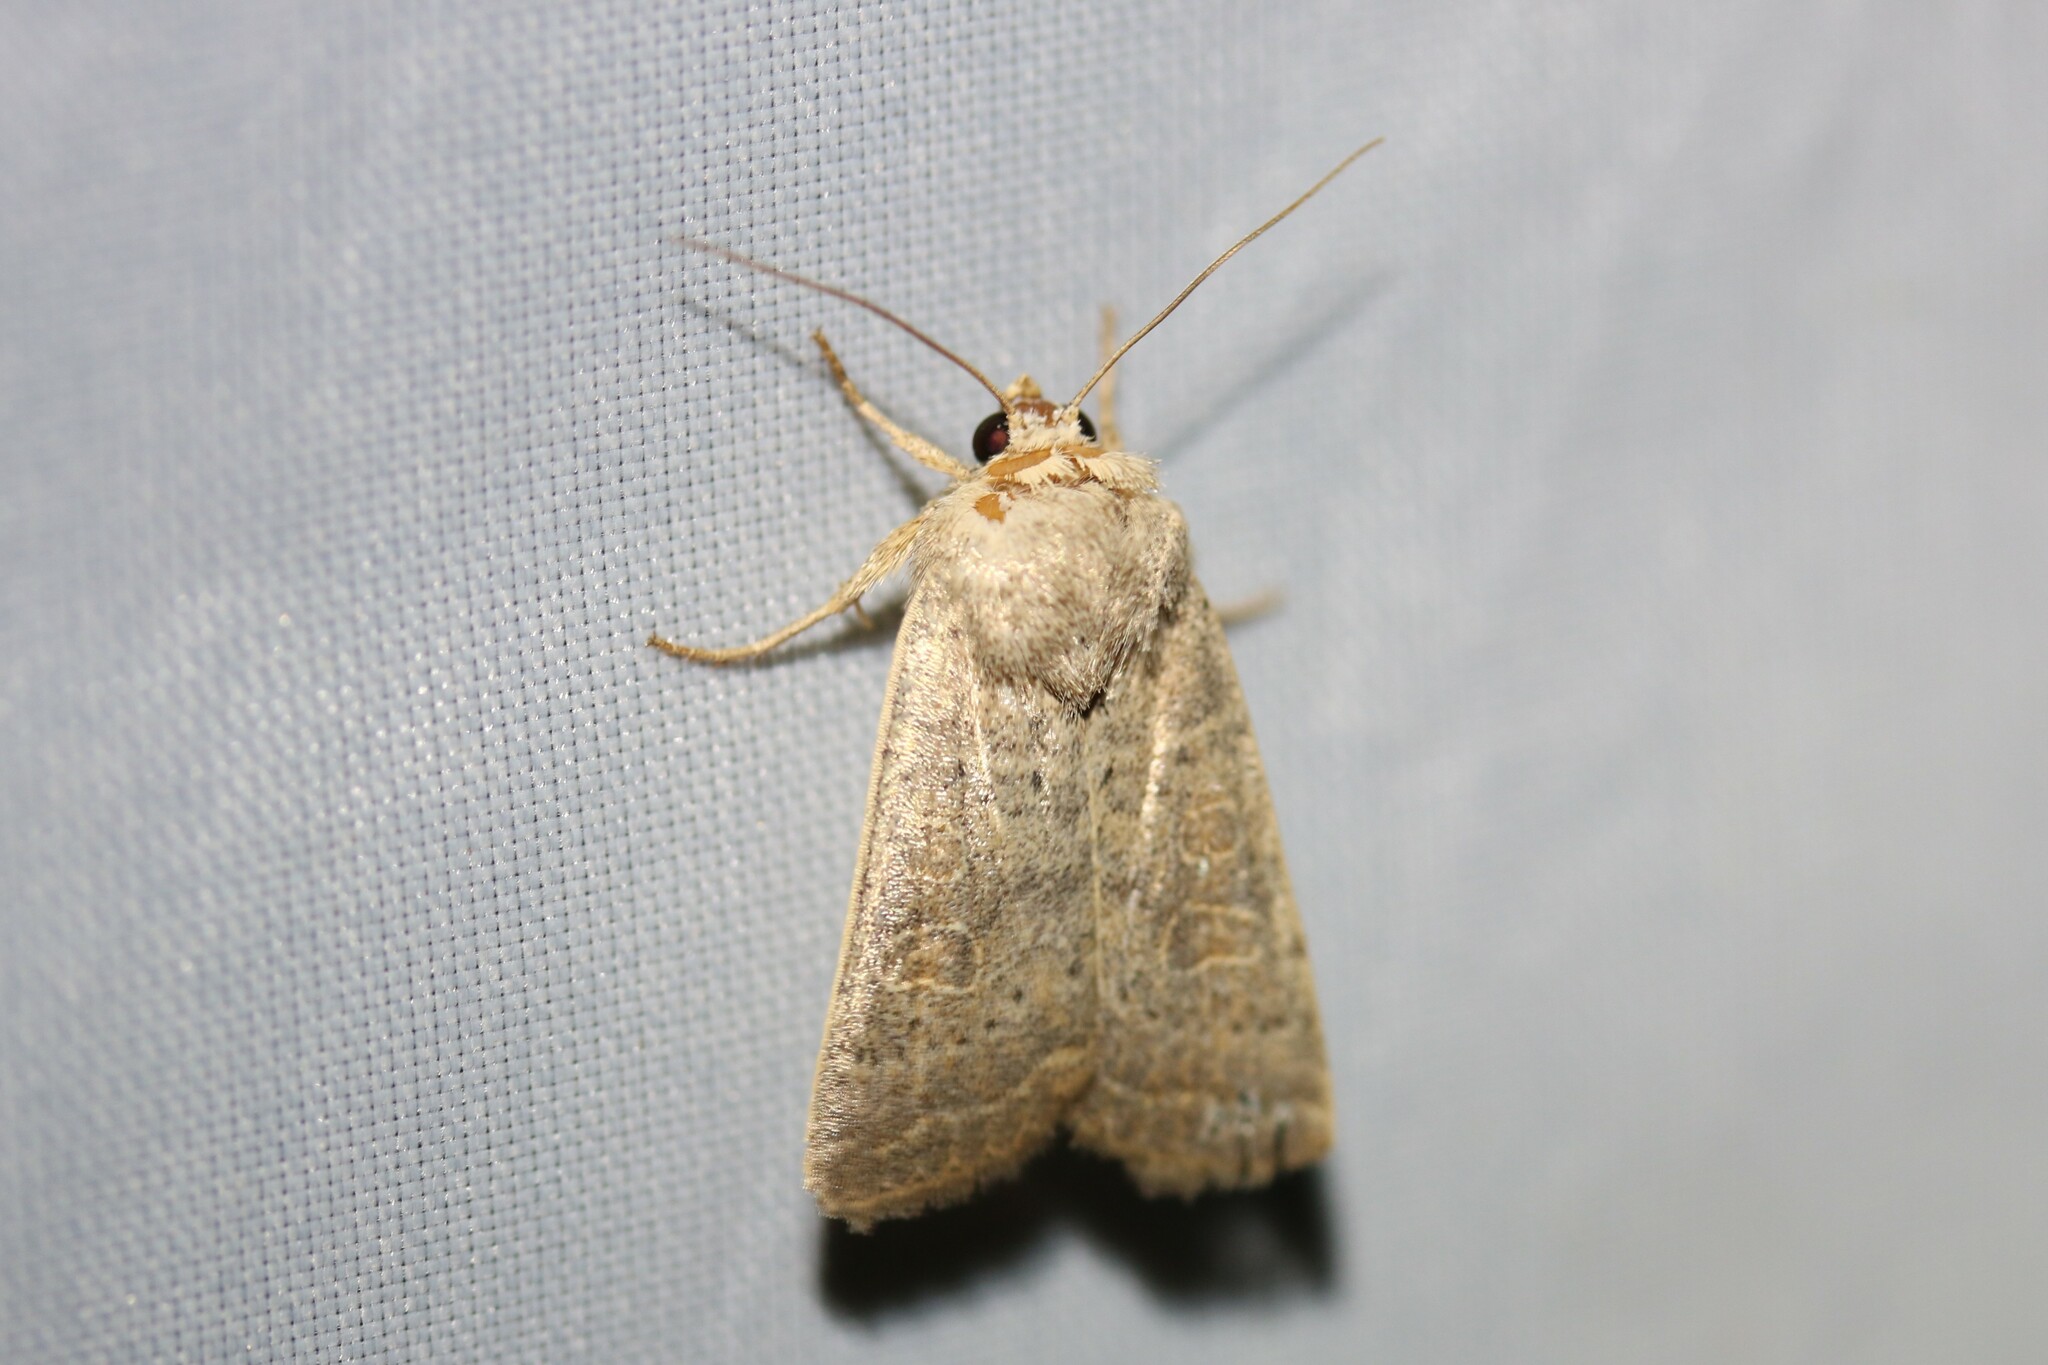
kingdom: Animalia
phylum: Arthropoda
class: Insecta
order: Lepidoptera
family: Noctuidae
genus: Hoplodrina
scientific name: Hoplodrina ambigua
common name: Vine's rustic
